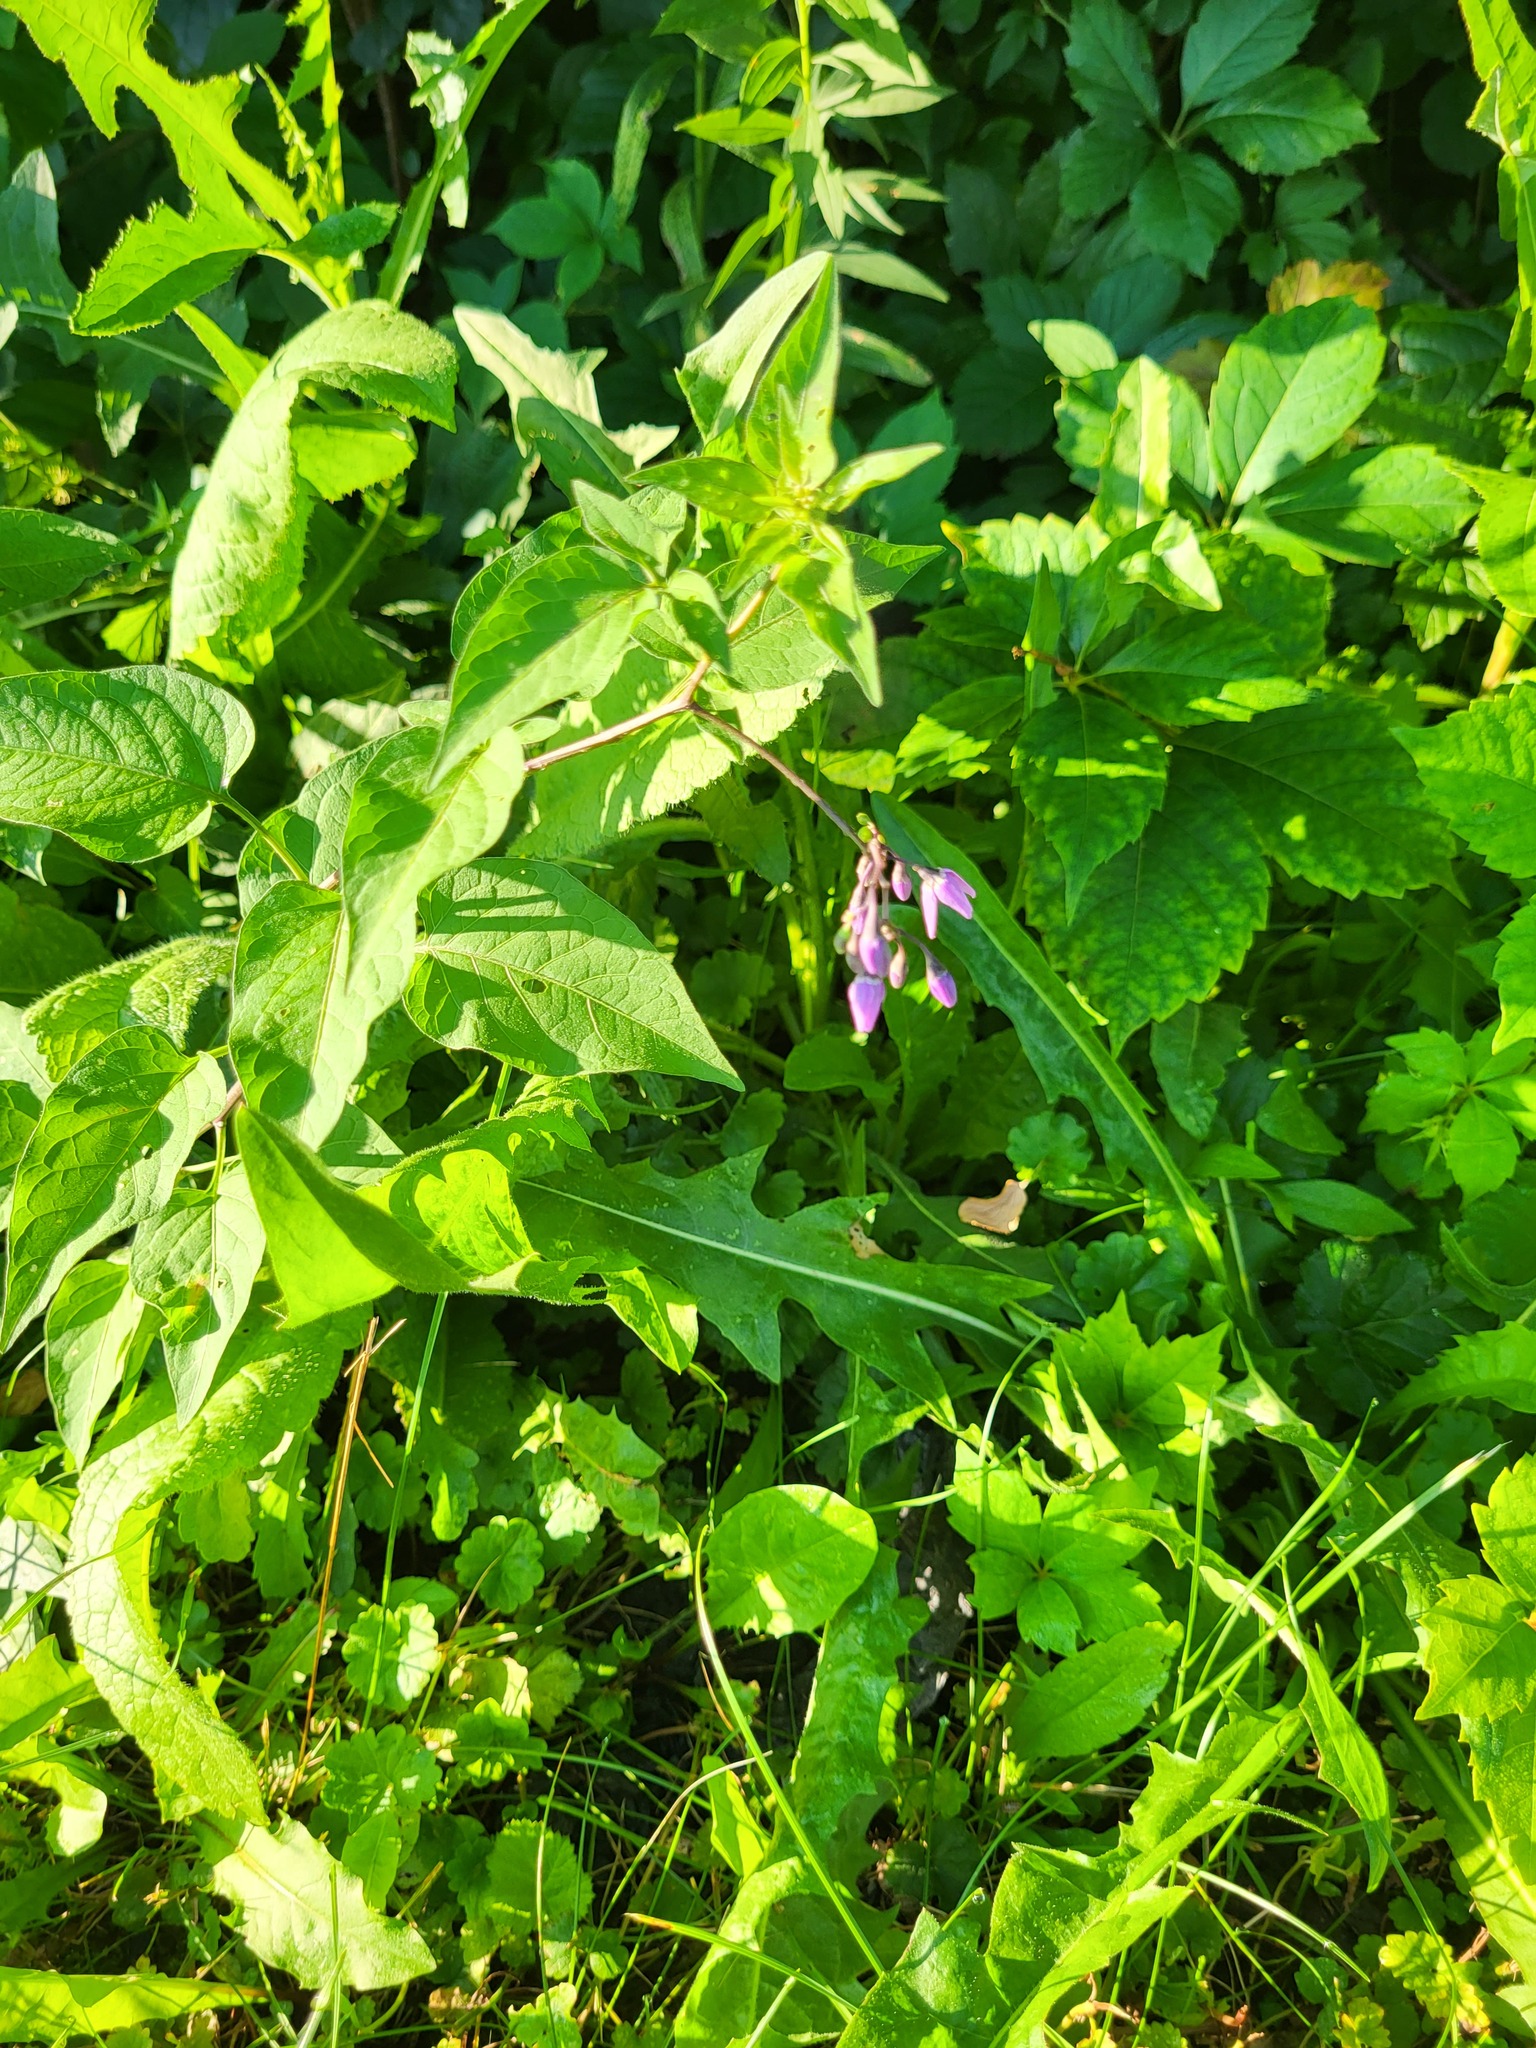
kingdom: Plantae
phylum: Tracheophyta
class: Magnoliopsida
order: Solanales
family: Solanaceae
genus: Solanum
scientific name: Solanum dulcamara
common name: Climbing nightshade
